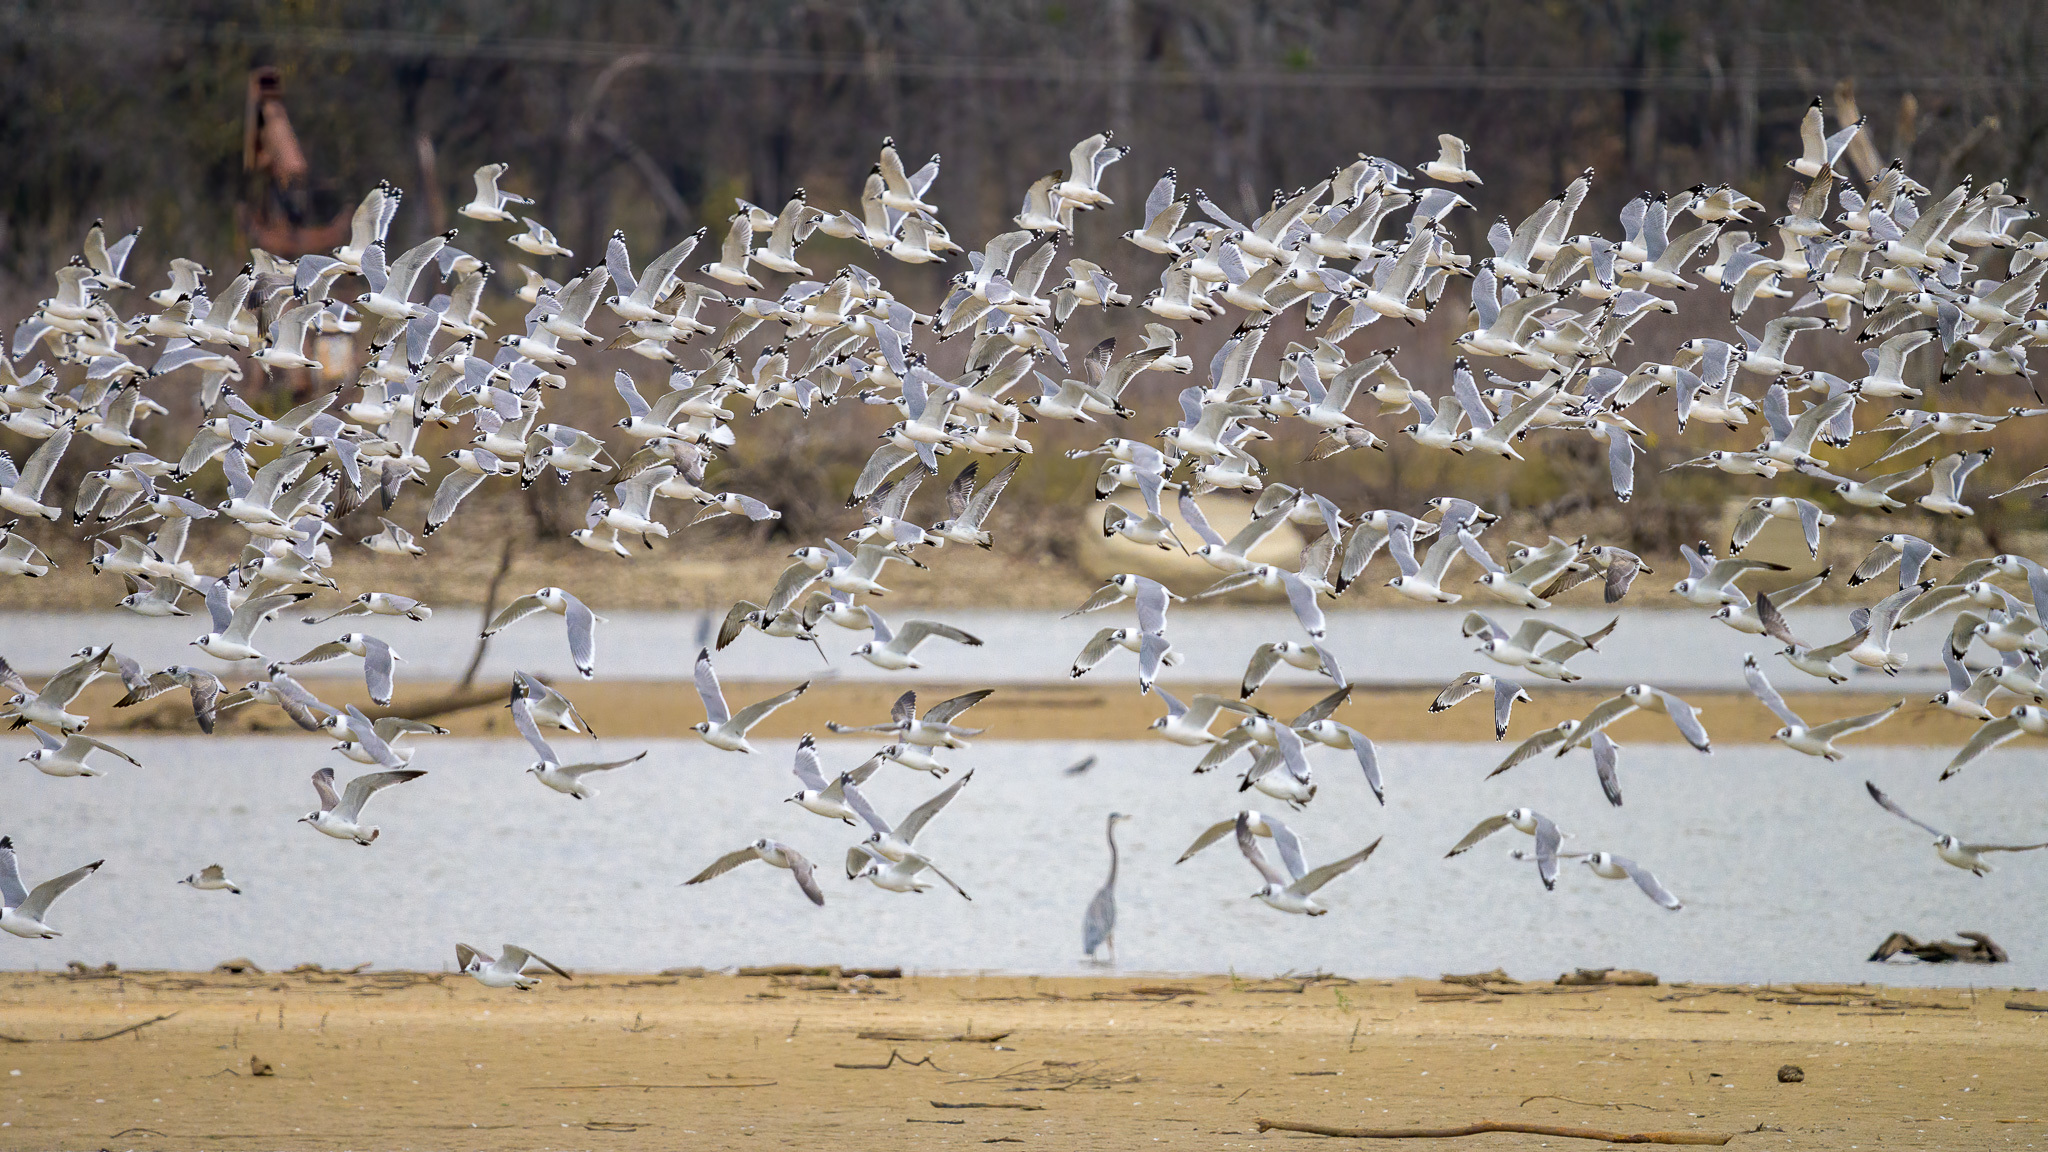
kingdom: Animalia
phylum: Chordata
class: Aves
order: Charadriiformes
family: Laridae
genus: Leucophaeus
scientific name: Leucophaeus pipixcan
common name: Franklin's gull
